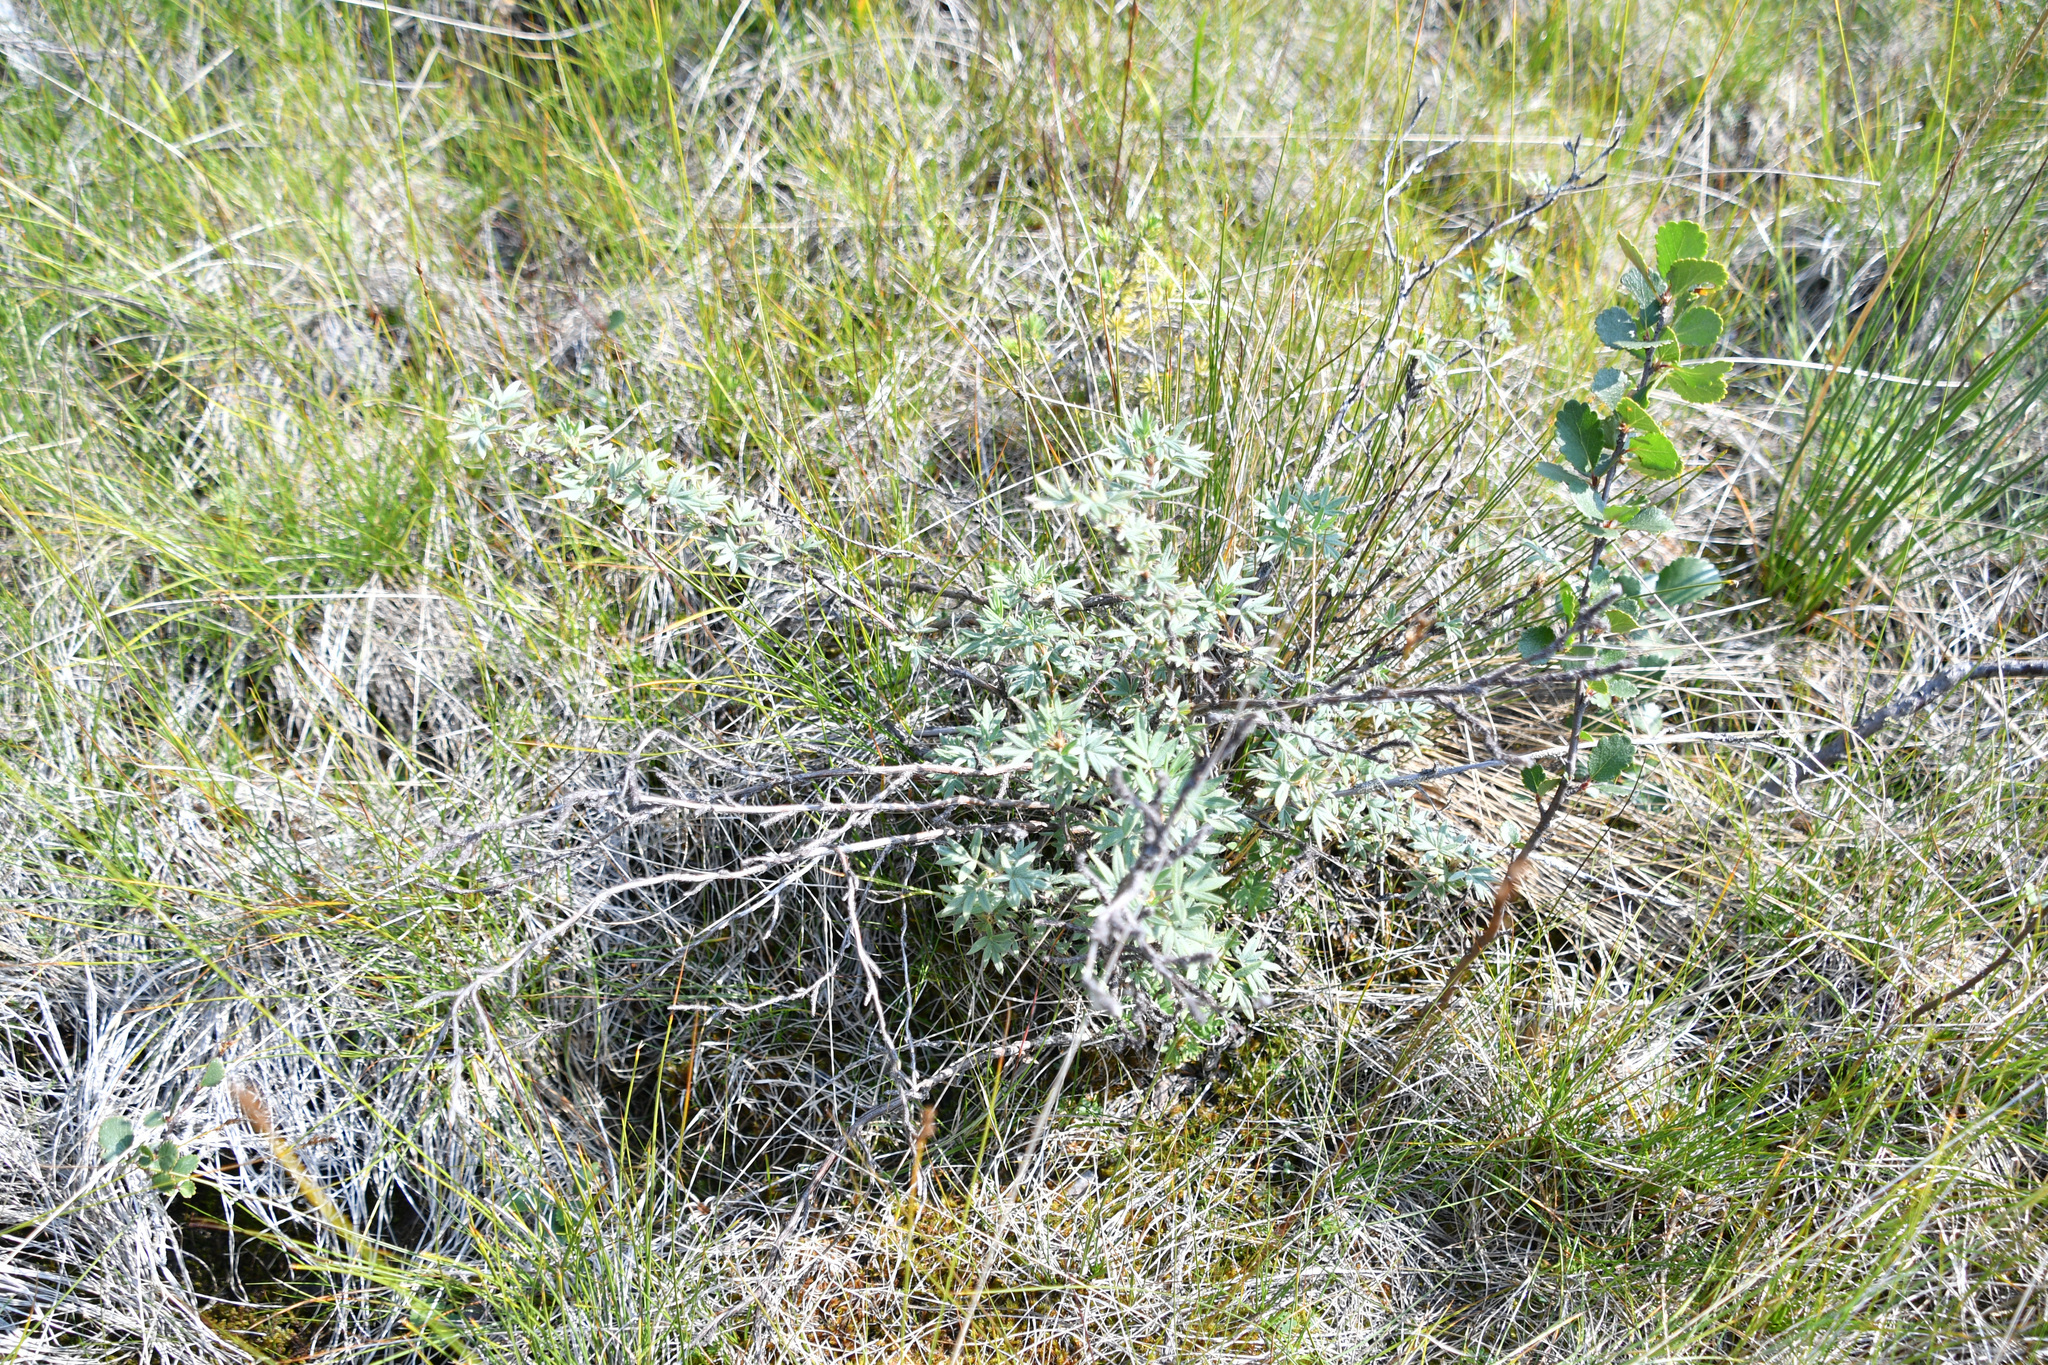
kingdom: Plantae
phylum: Tracheophyta
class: Magnoliopsida
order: Rosales
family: Rosaceae
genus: Dasiphora
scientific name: Dasiphora fruticosa
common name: Shrubby cinquefoil
